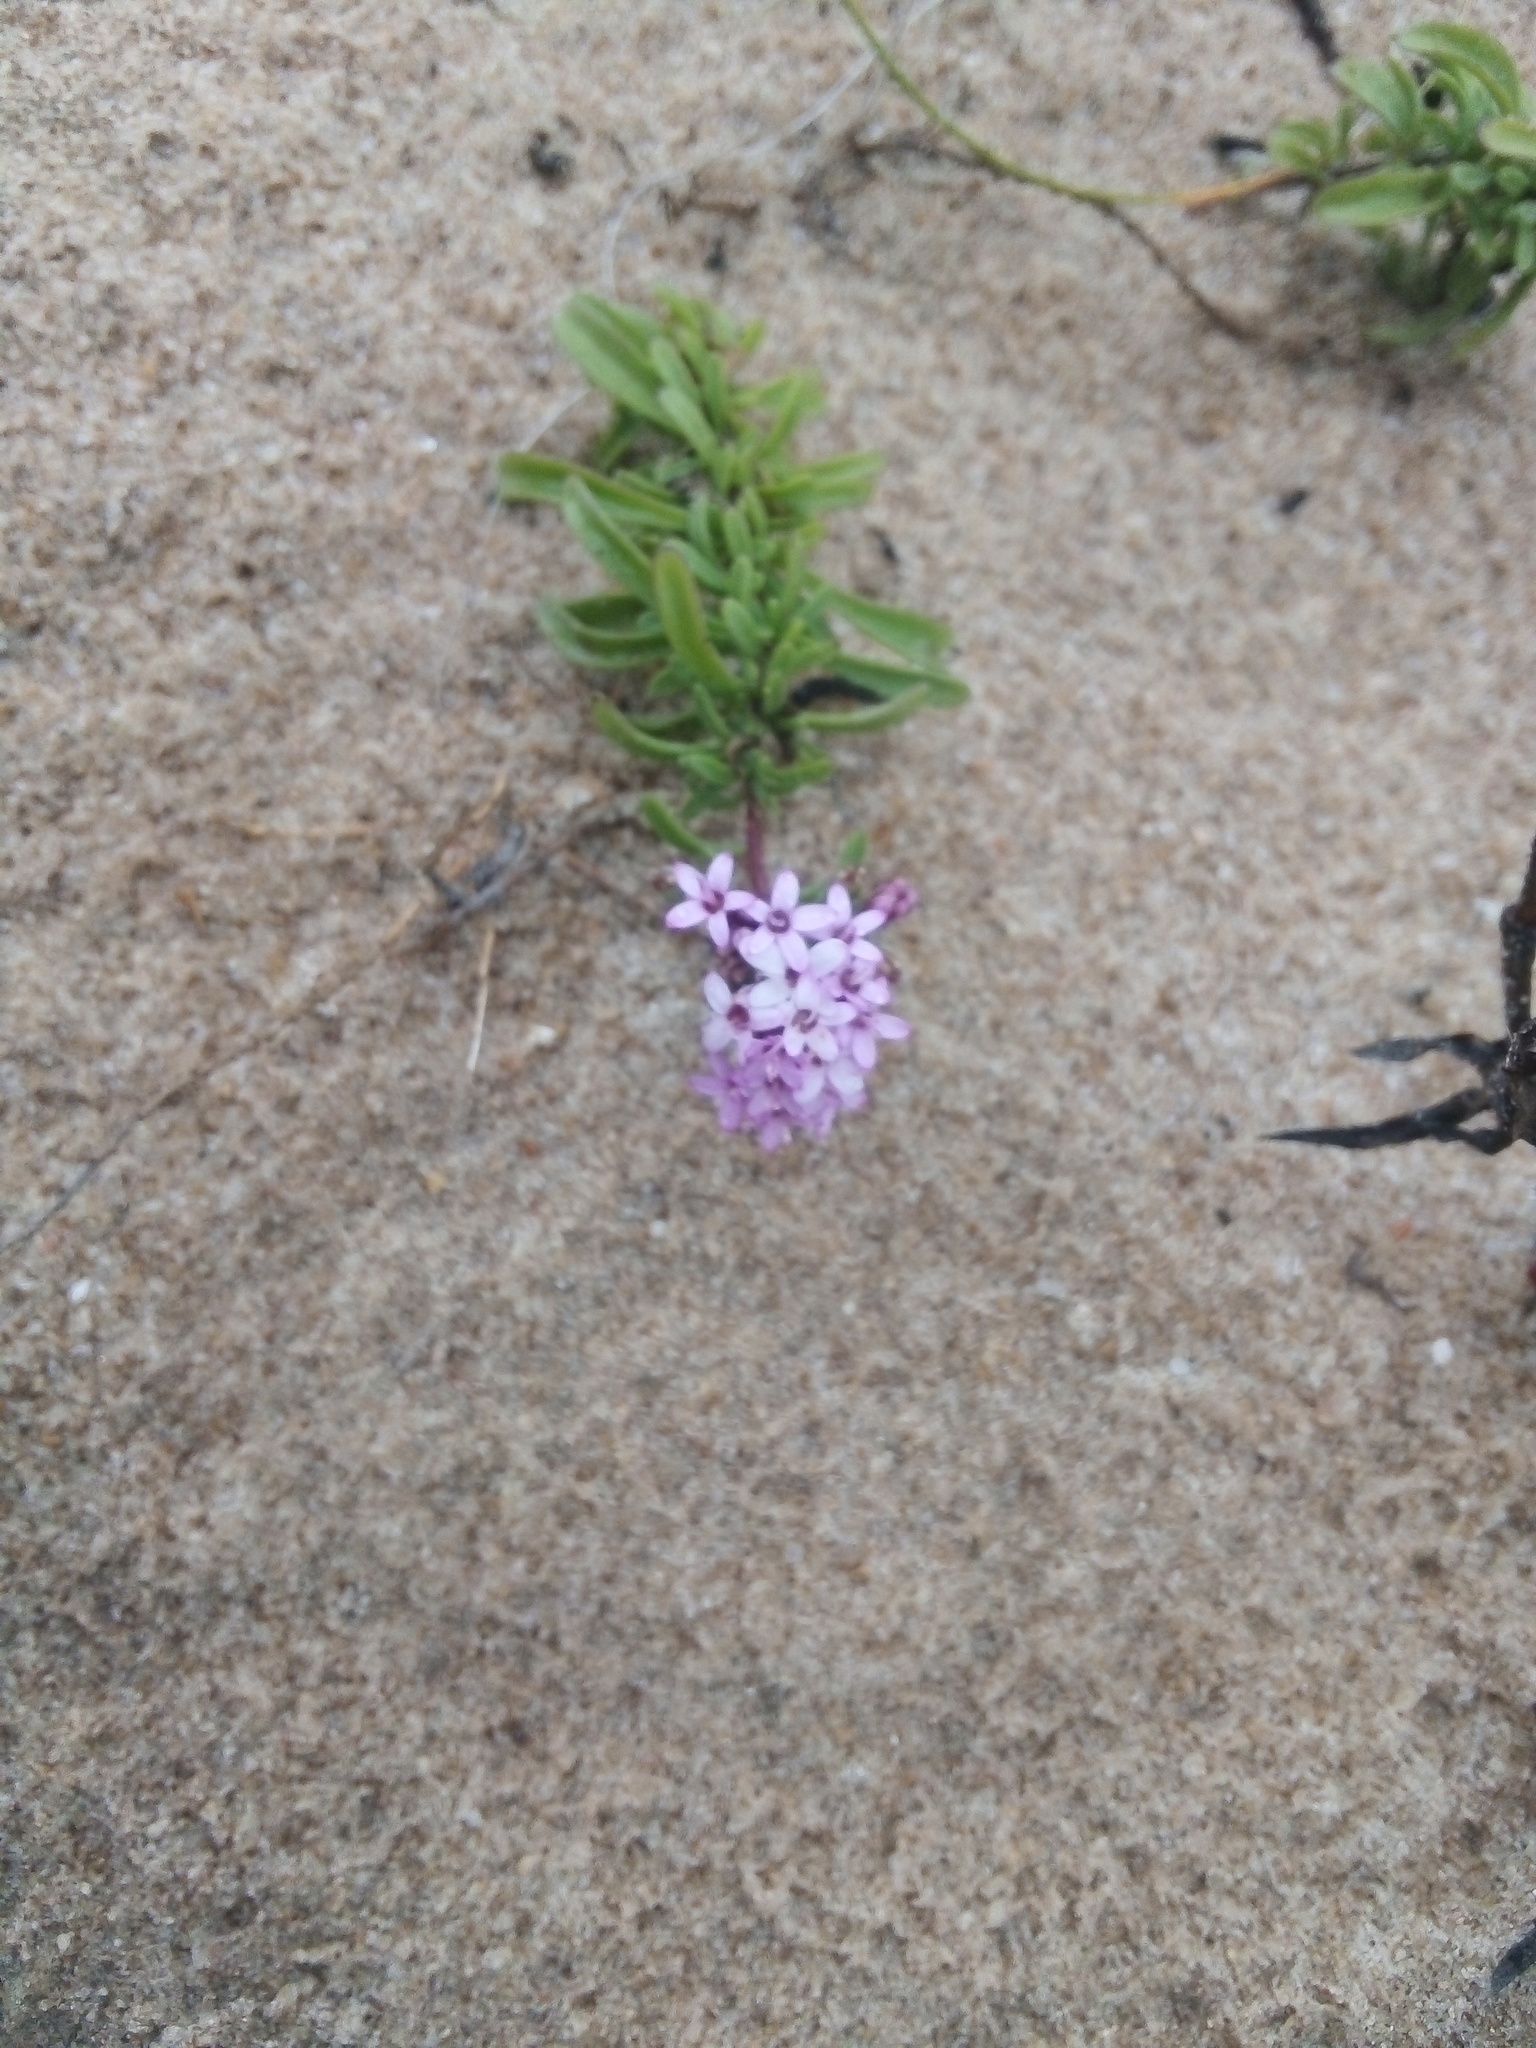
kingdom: Plantae
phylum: Tracheophyta
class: Magnoliopsida
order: Asterales
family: Asteraceae
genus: Stevia
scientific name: Stevia satureifolia
